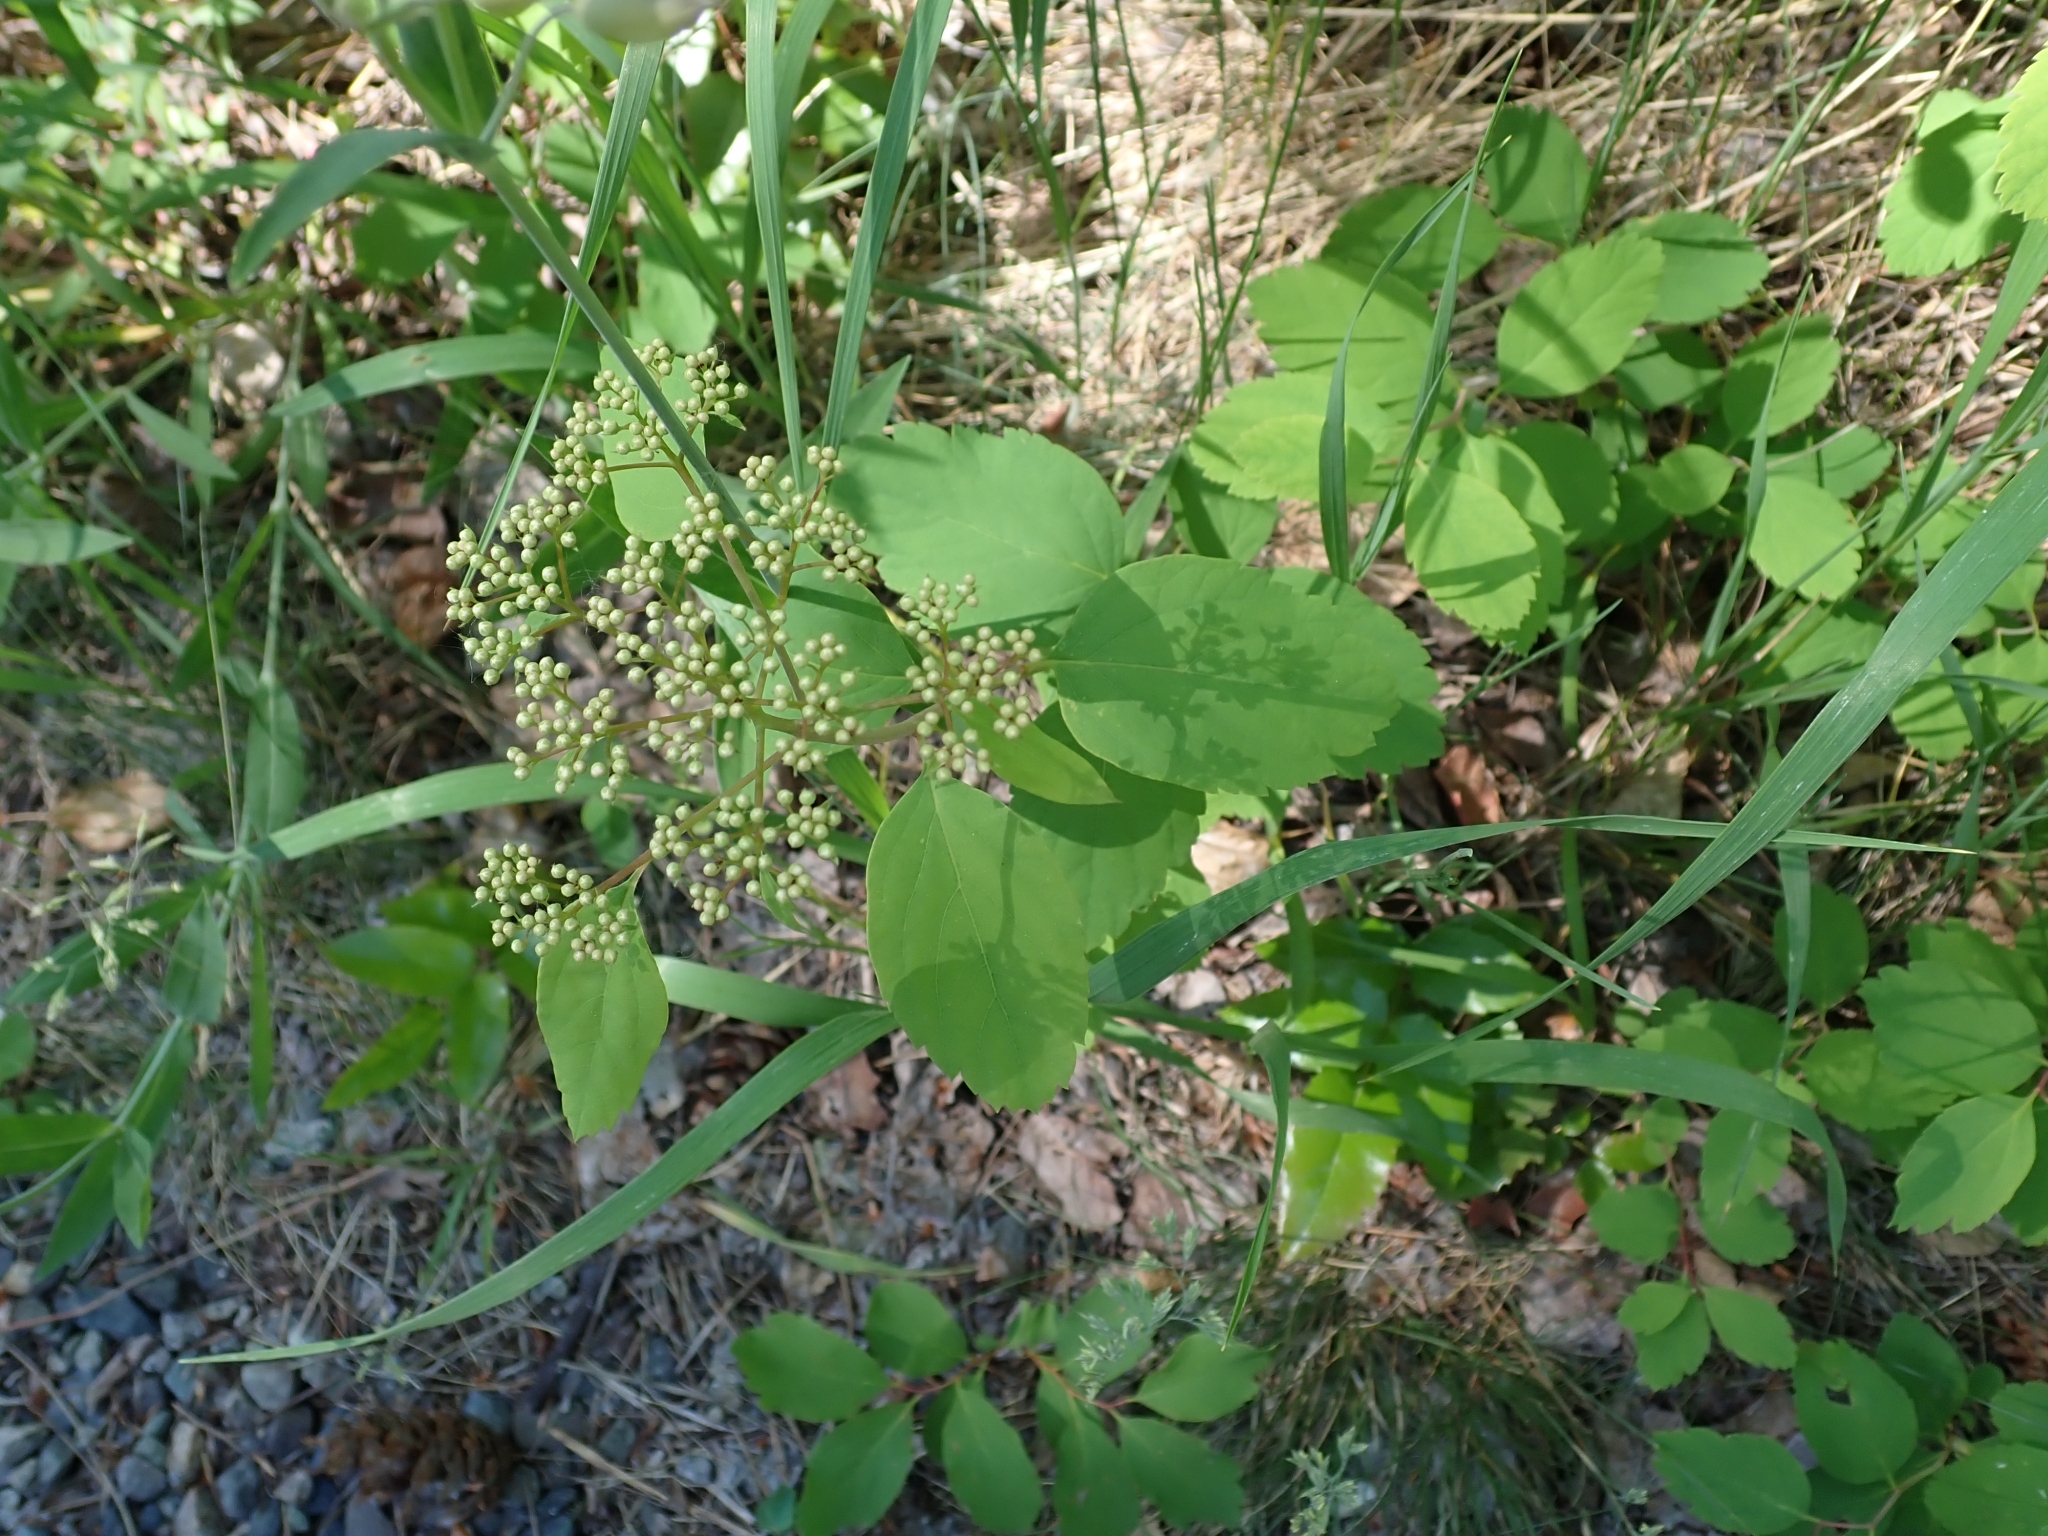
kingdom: Plantae
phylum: Tracheophyta
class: Magnoliopsida
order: Rosales
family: Rosaceae
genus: Spiraea
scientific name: Spiraea lucida
